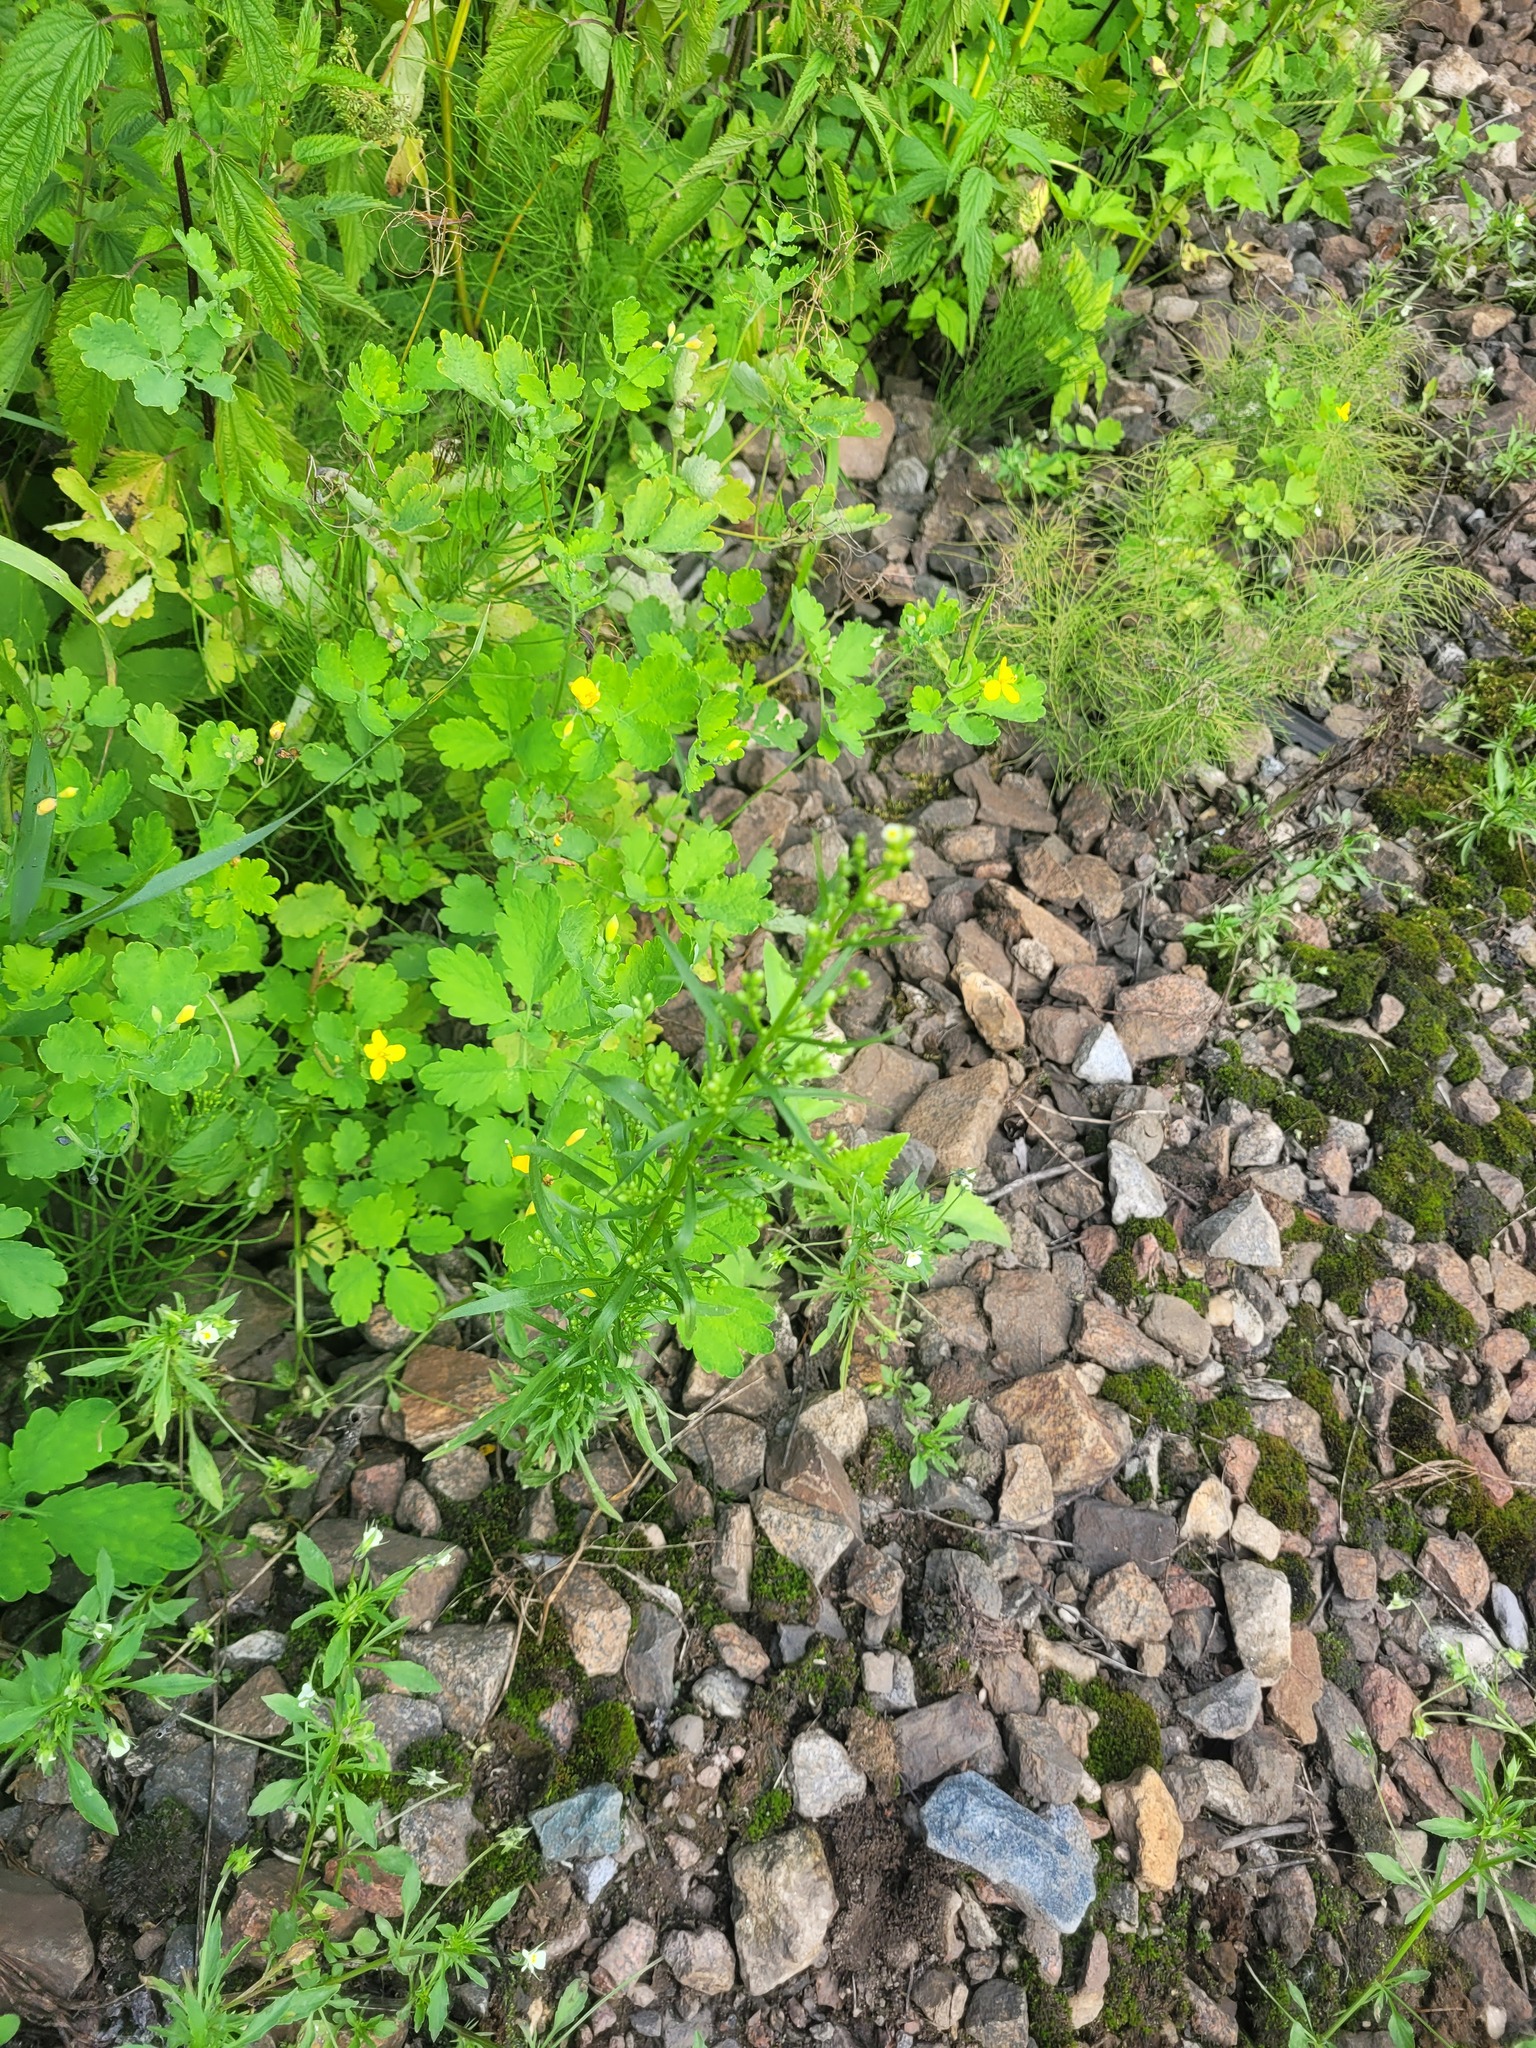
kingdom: Plantae
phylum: Tracheophyta
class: Magnoliopsida
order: Asterales
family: Asteraceae
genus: Erigeron
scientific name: Erigeron canadensis
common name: Canadian fleabane
